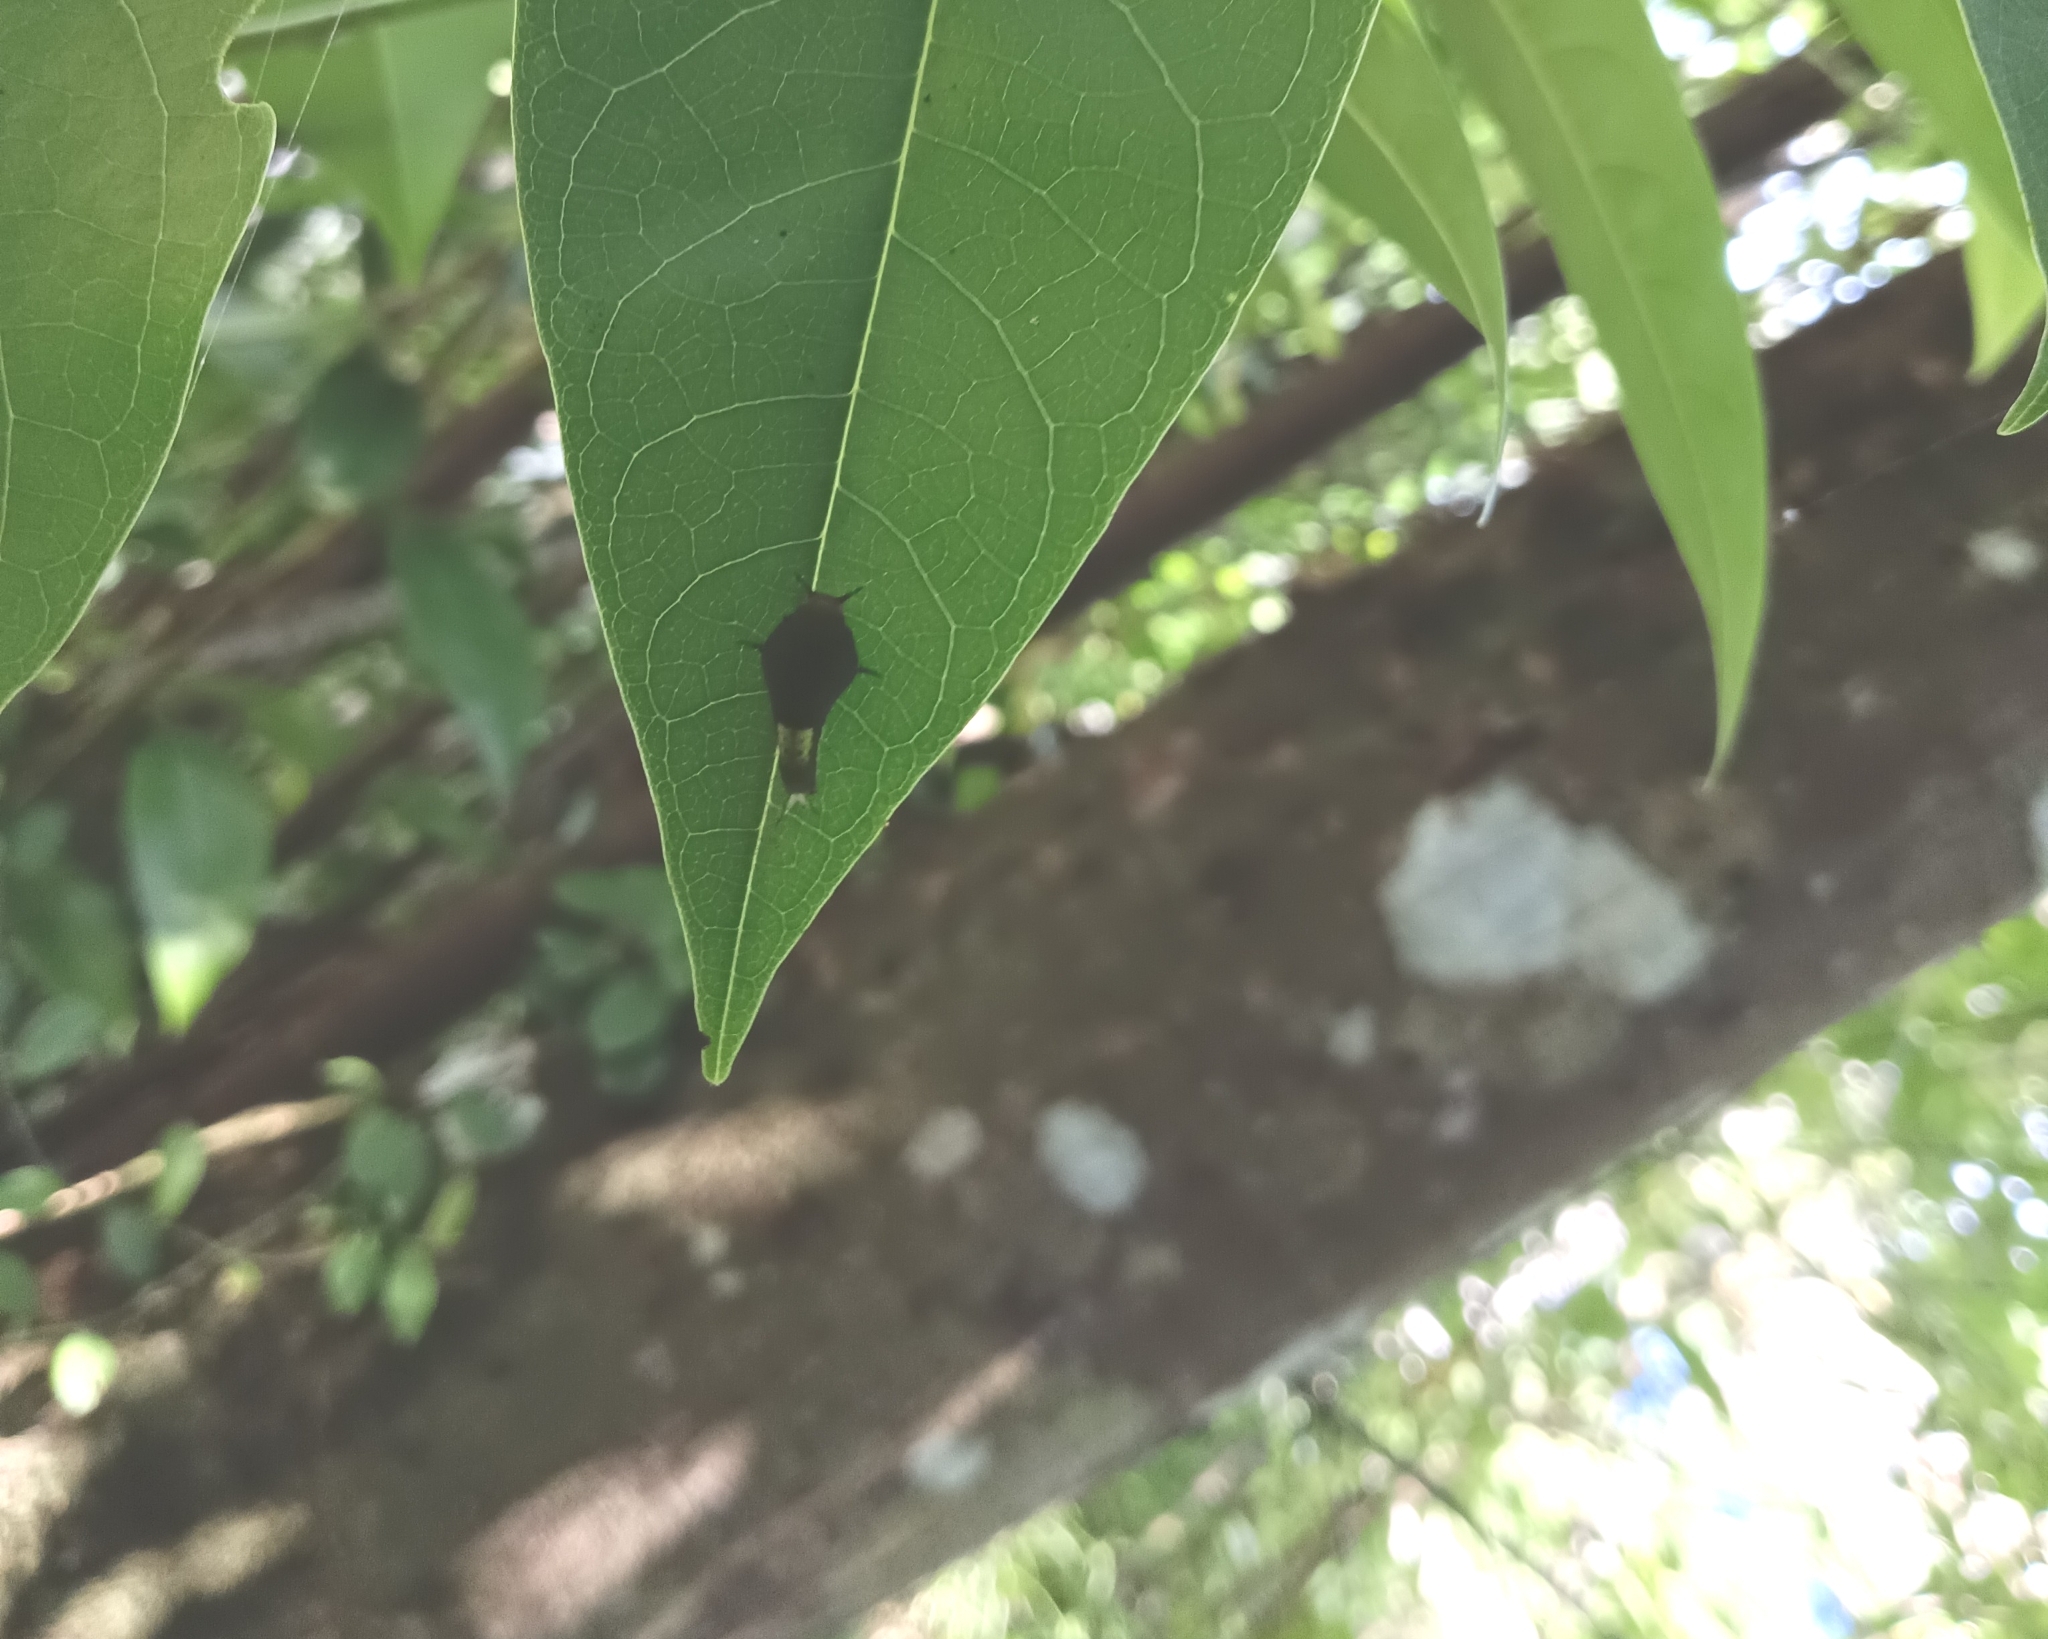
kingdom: Animalia
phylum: Arthropoda
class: Insecta
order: Lepidoptera
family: Papilionidae
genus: Graphium
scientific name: Graphium agamemnon
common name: Tailed jay
